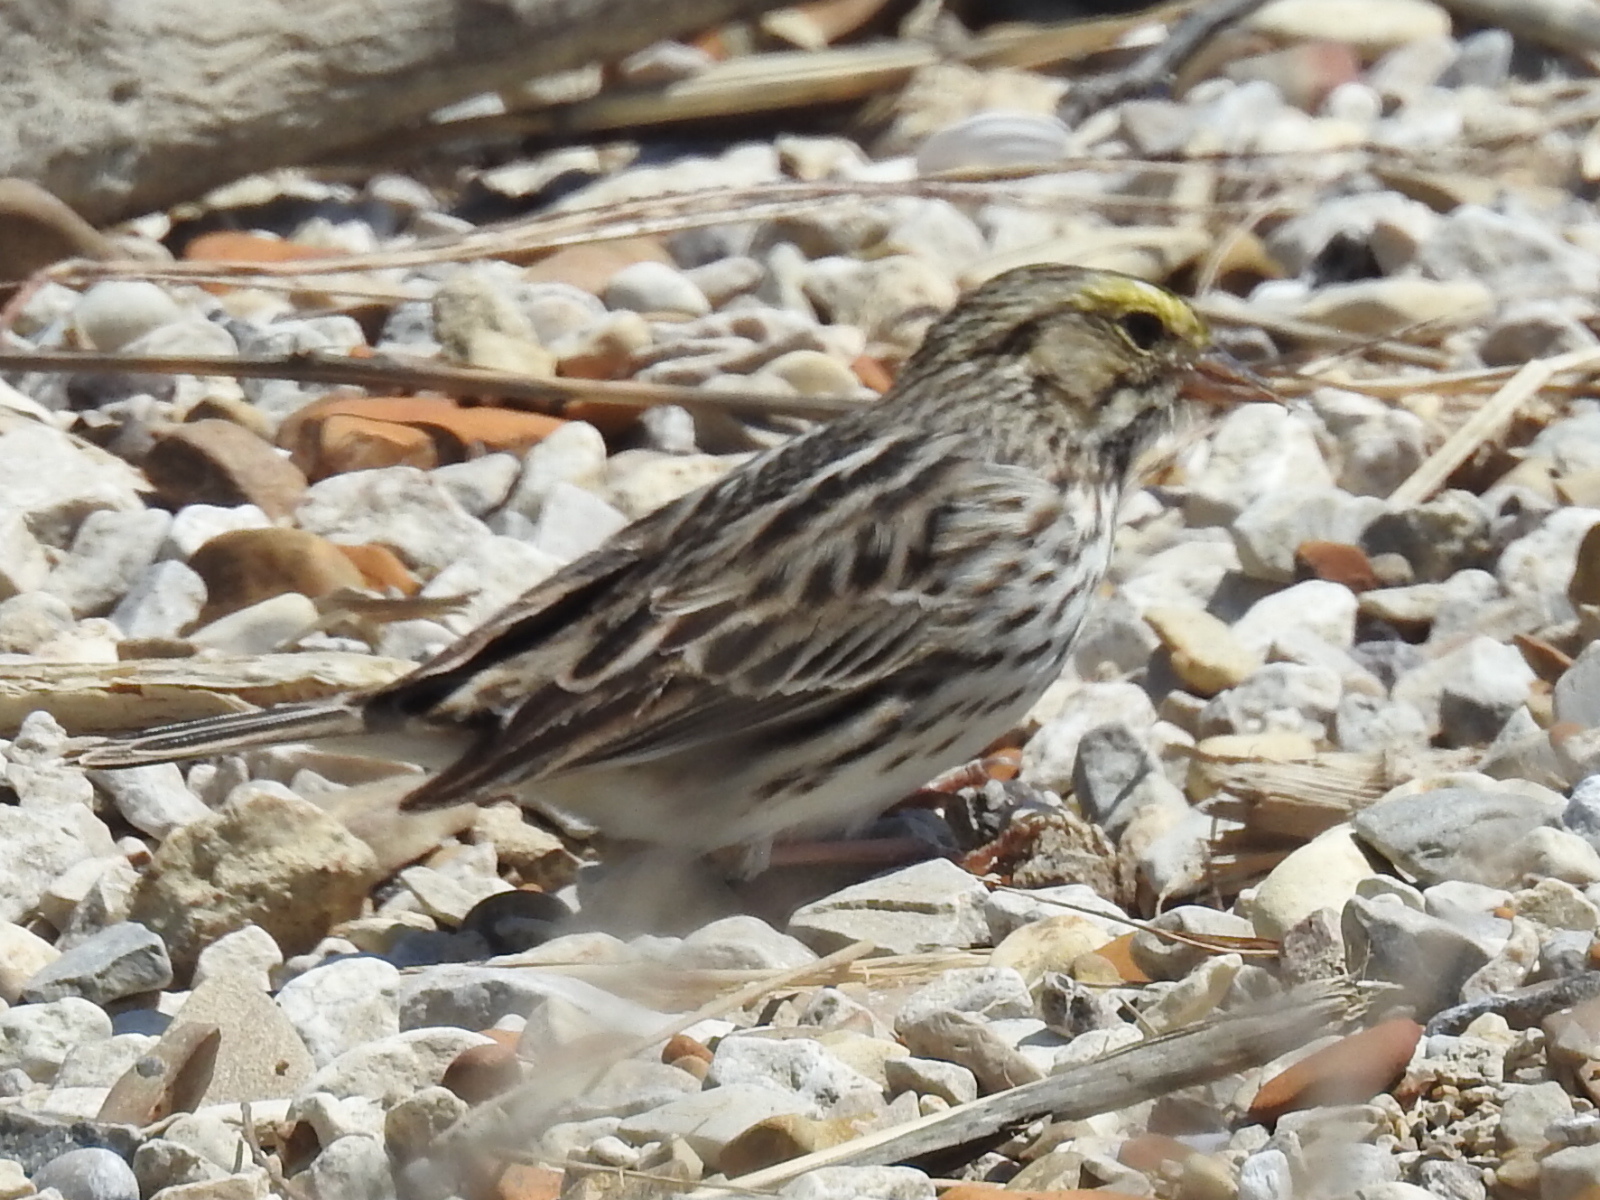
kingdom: Animalia
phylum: Chordata
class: Aves
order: Passeriformes
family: Passerellidae
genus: Passerculus
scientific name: Passerculus sandwichensis
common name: Savannah sparrow
